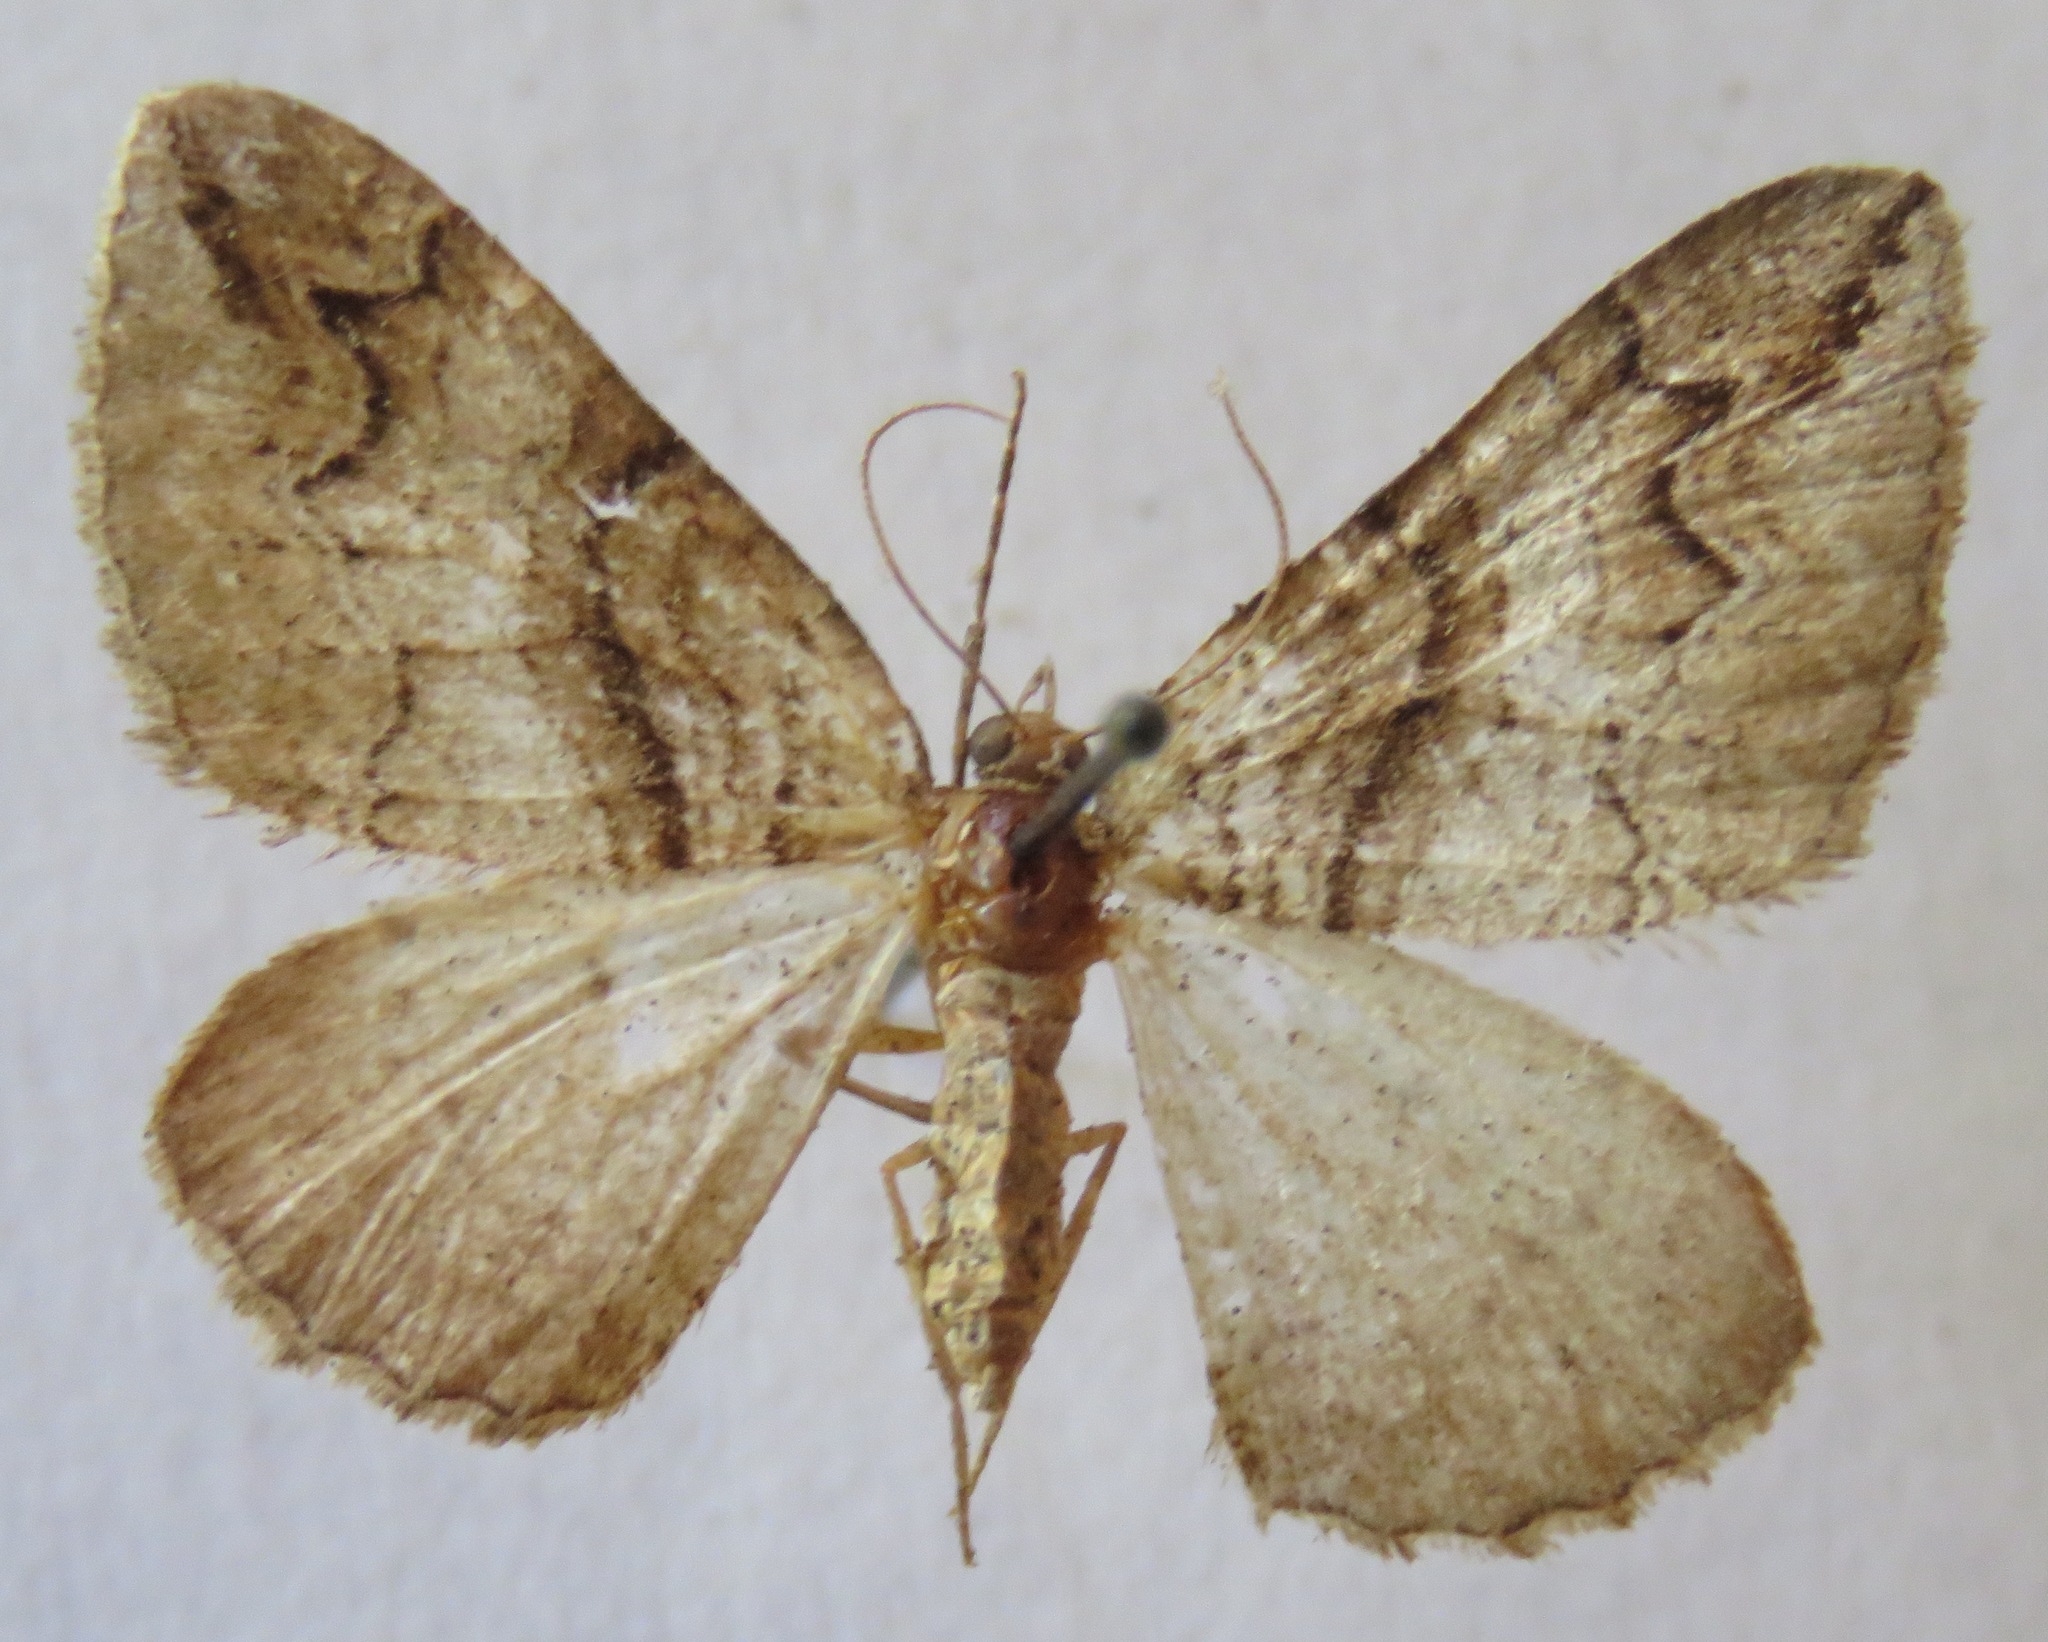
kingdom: Animalia
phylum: Arthropoda
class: Insecta
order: Lepidoptera
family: Geometridae
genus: Pareulype
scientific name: Pareulype berberata
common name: Barberry carpet
